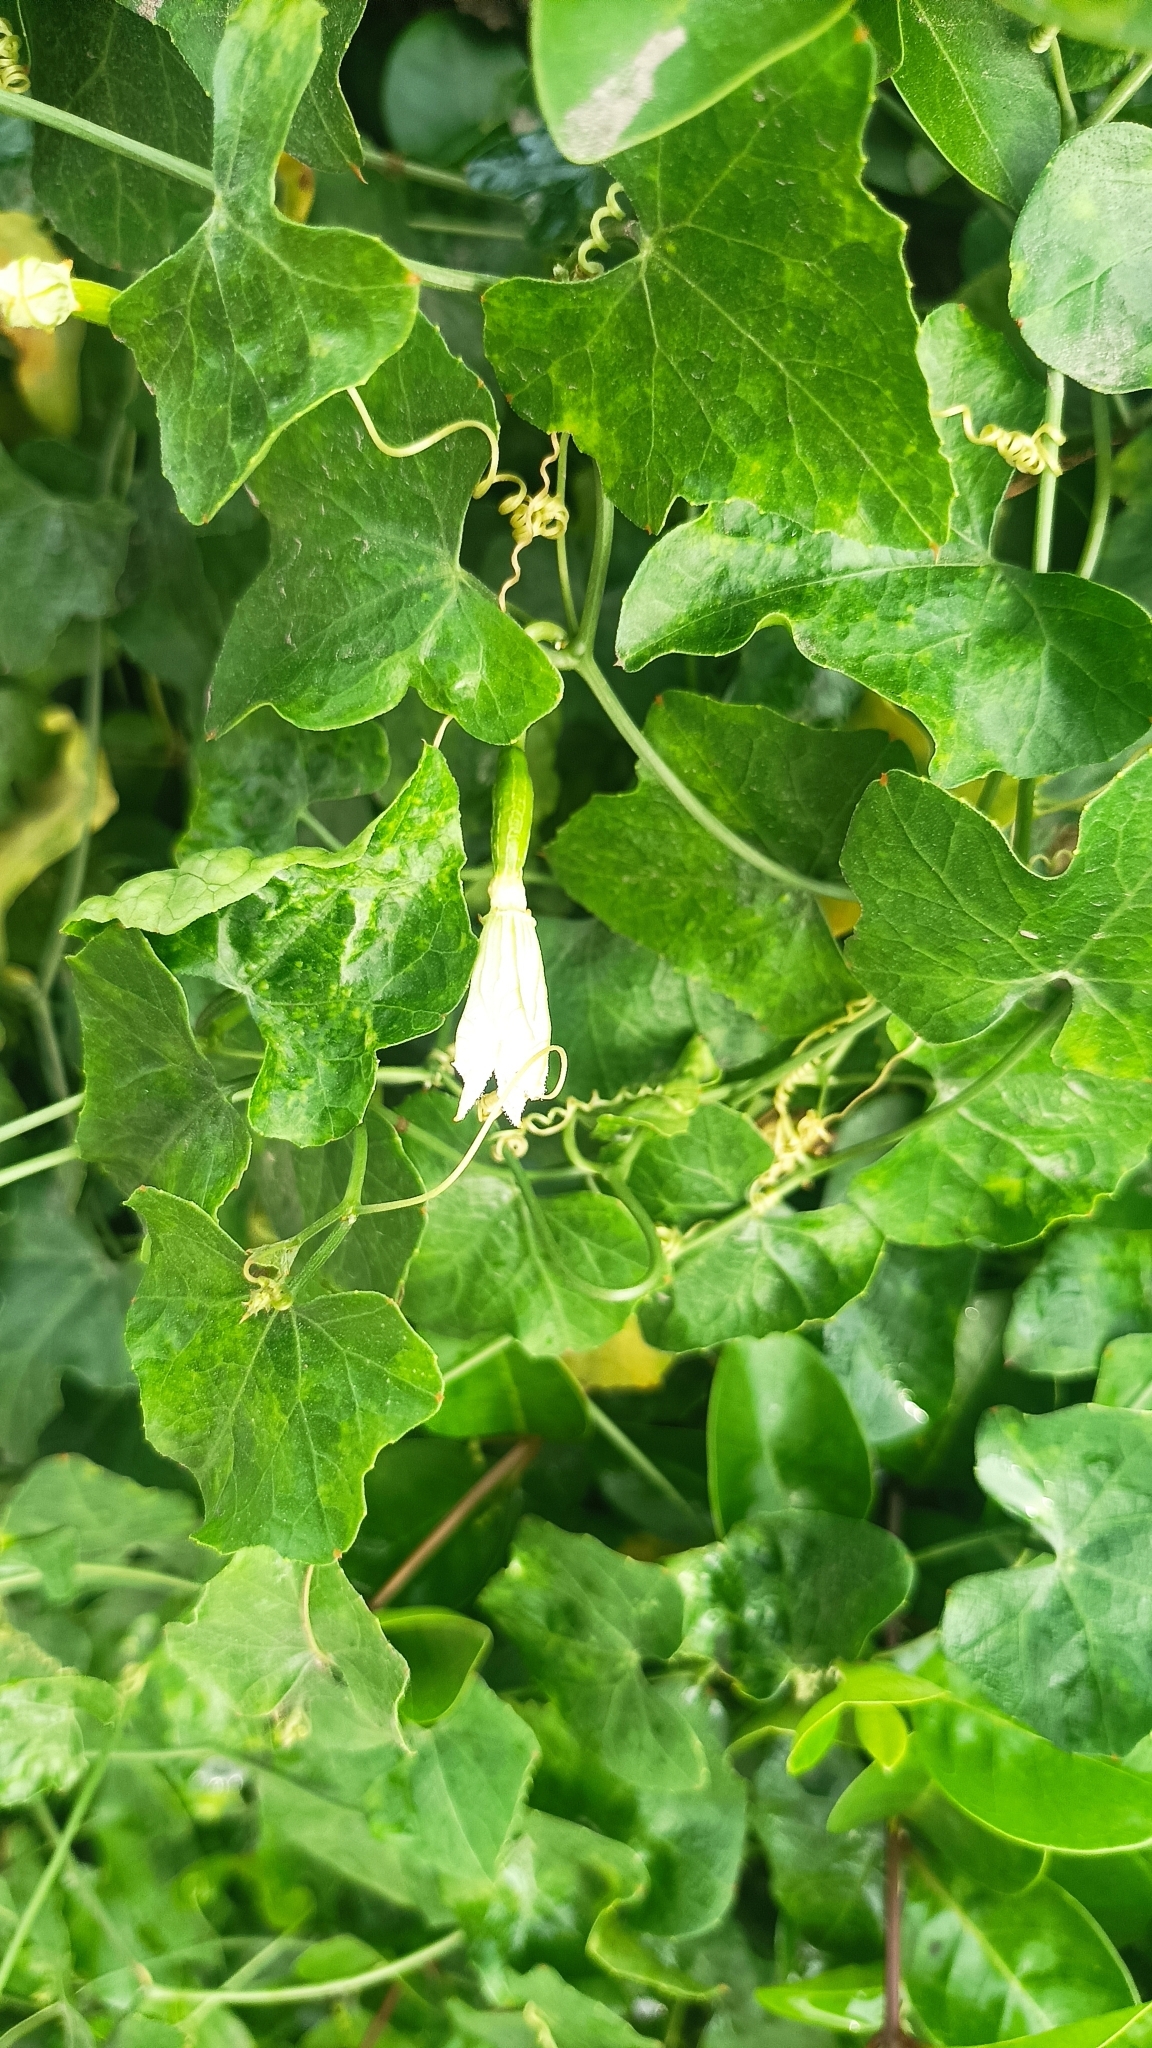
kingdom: Plantae
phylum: Tracheophyta
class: Magnoliopsida
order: Cucurbitales
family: Cucurbitaceae
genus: Coccinia
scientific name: Coccinia grandis
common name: Ivy gourd
